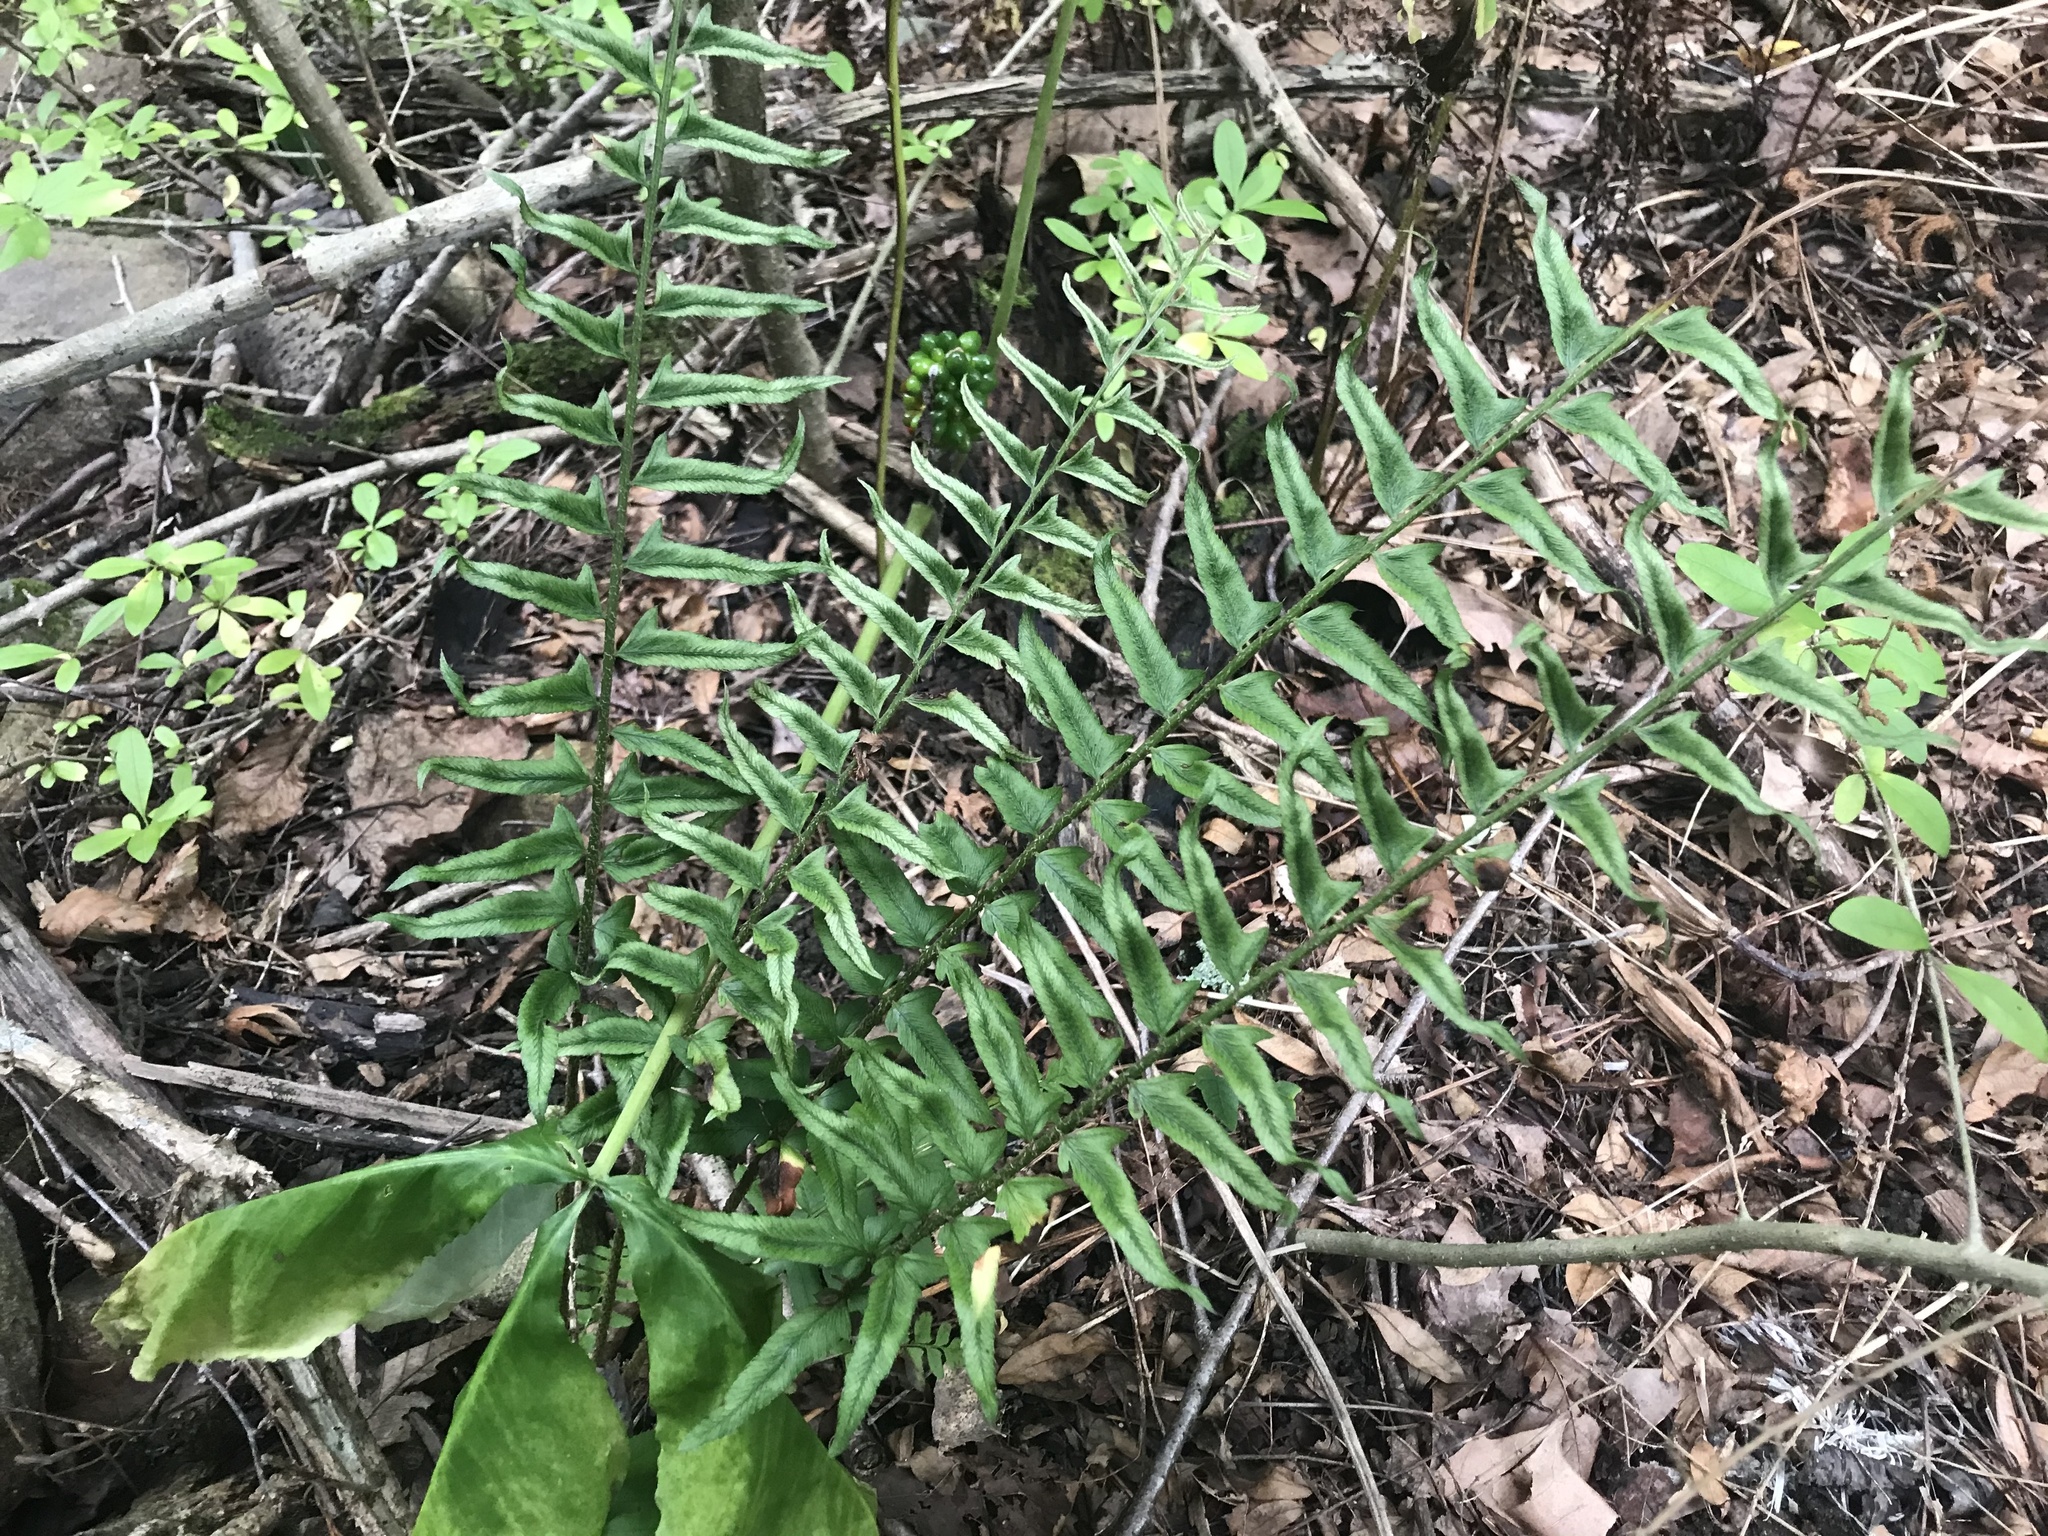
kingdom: Plantae
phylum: Tracheophyta
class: Polypodiopsida
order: Polypodiales
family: Dryopteridaceae
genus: Polystichum
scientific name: Polystichum acrostichoides
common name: Christmas fern
